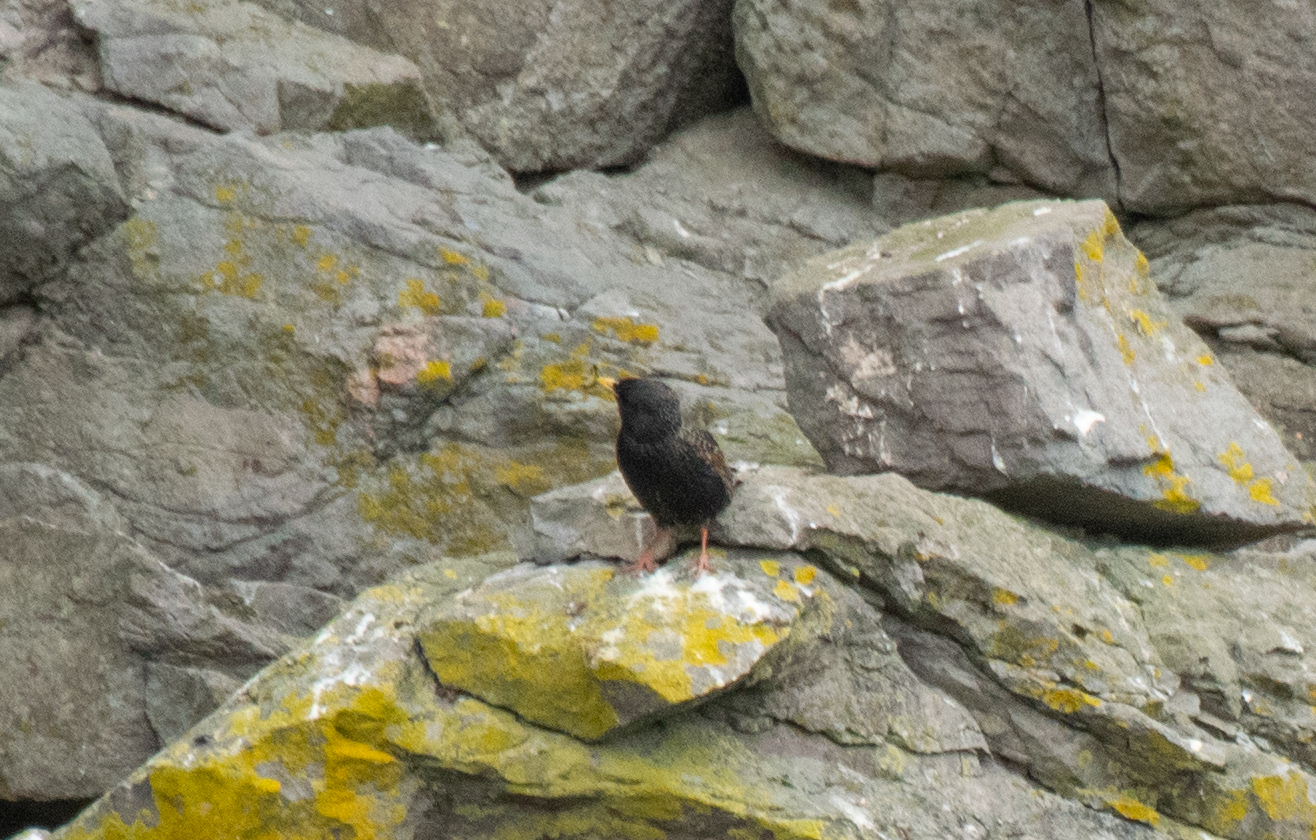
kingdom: Animalia
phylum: Chordata
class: Aves
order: Passeriformes
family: Sturnidae
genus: Sturnus
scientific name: Sturnus vulgaris
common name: Common starling
